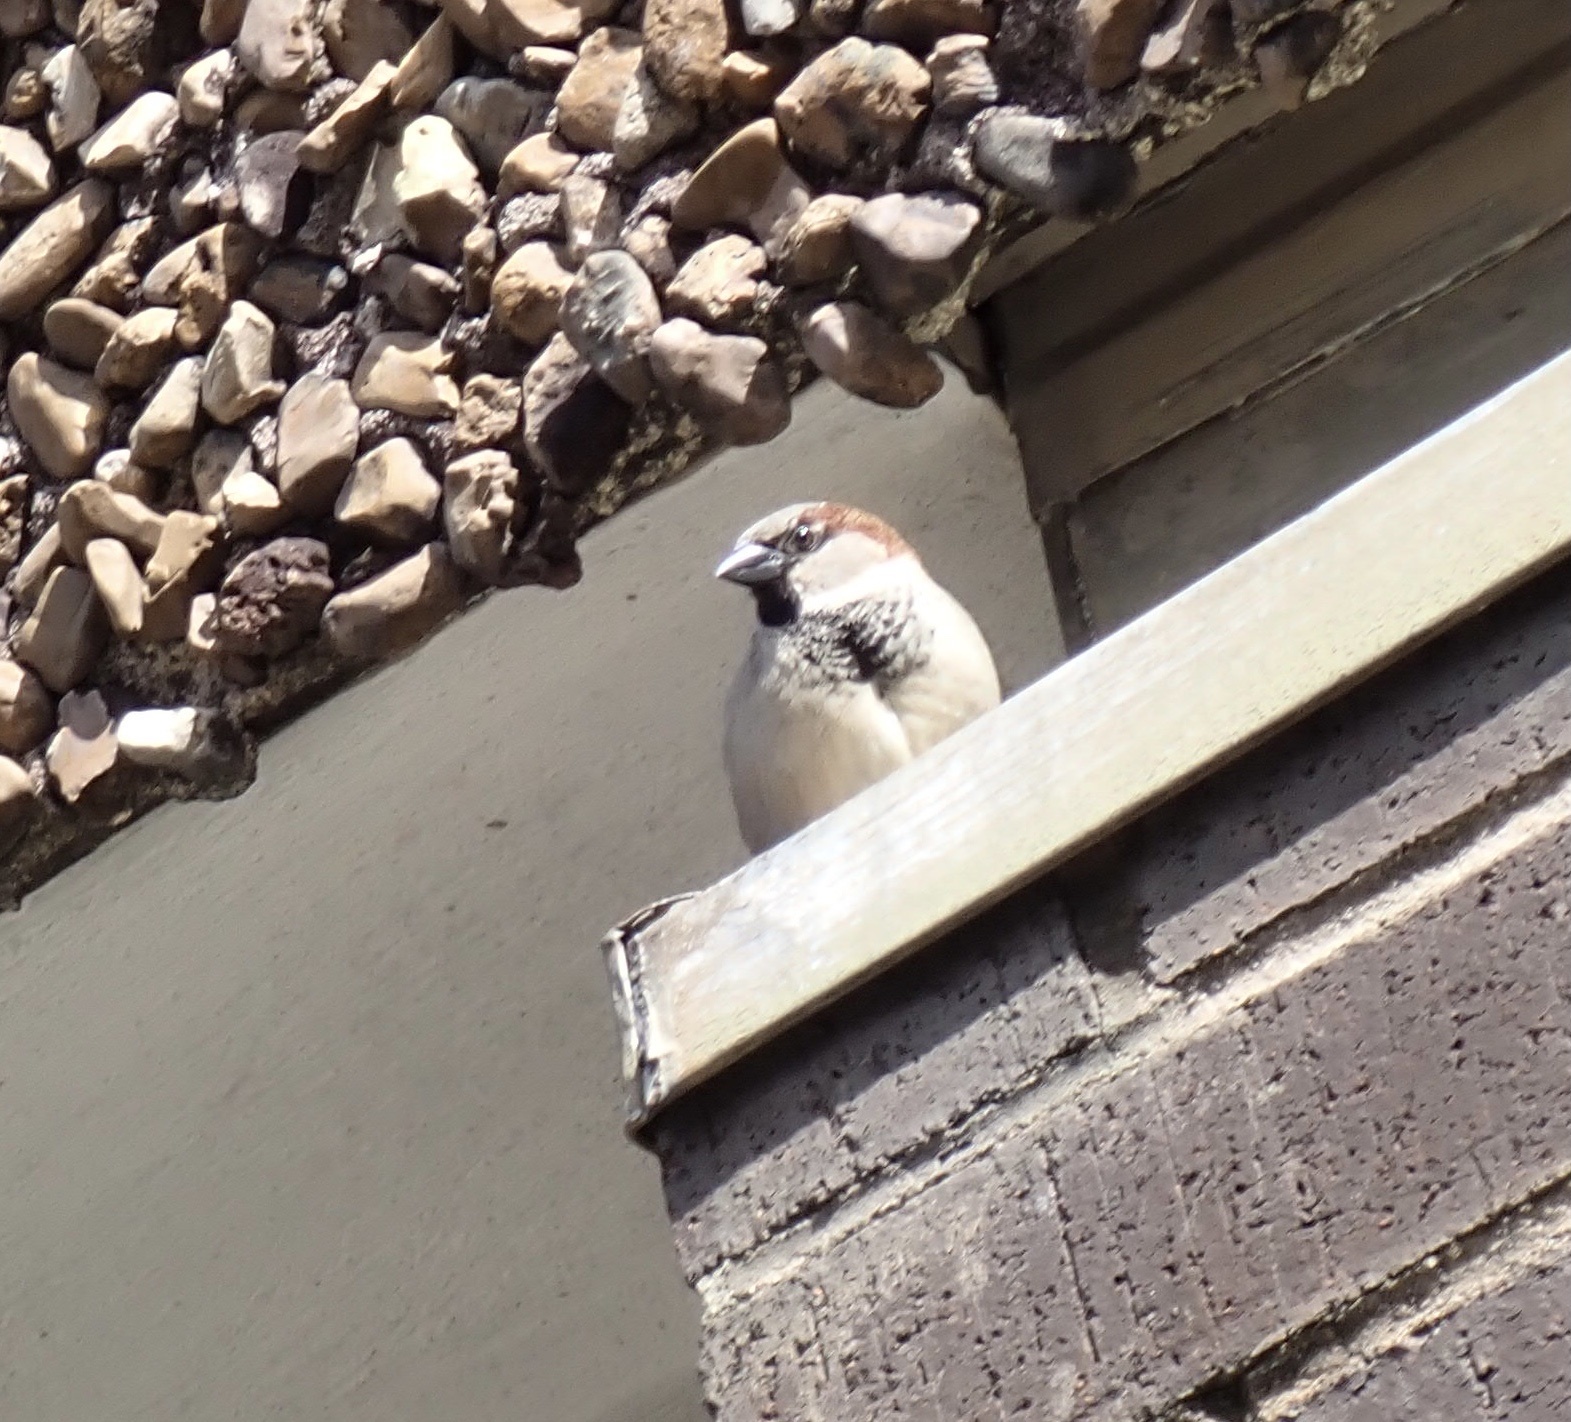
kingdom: Animalia
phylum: Chordata
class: Aves
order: Passeriformes
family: Passeridae
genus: Passer
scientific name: Passer domesticus
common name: House sparrow
